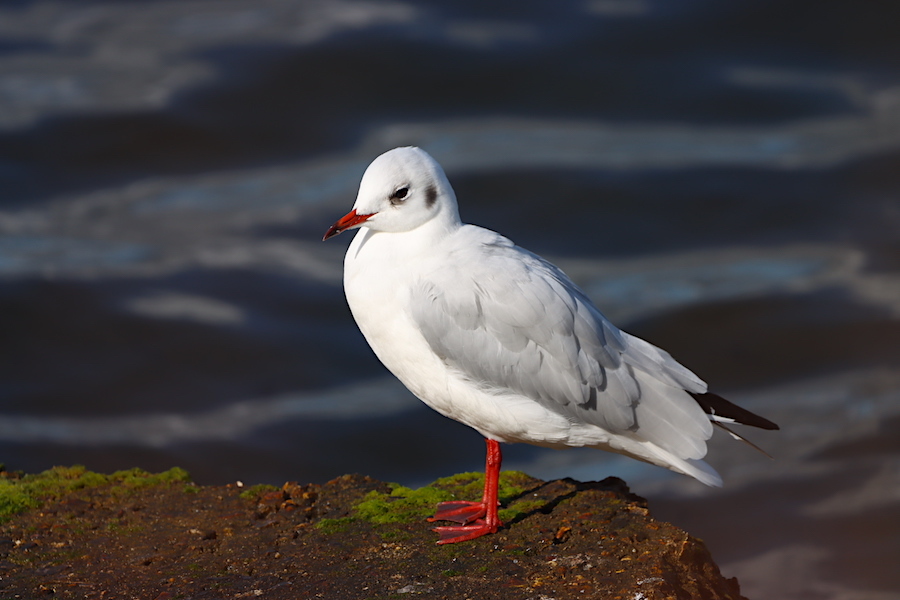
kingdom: Animalia
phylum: Chordata
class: Aves
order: Charadriiformes
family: Laridae
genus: Chroicocephalus
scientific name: Chroicocephalus ridibundus
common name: Black-headed gull
